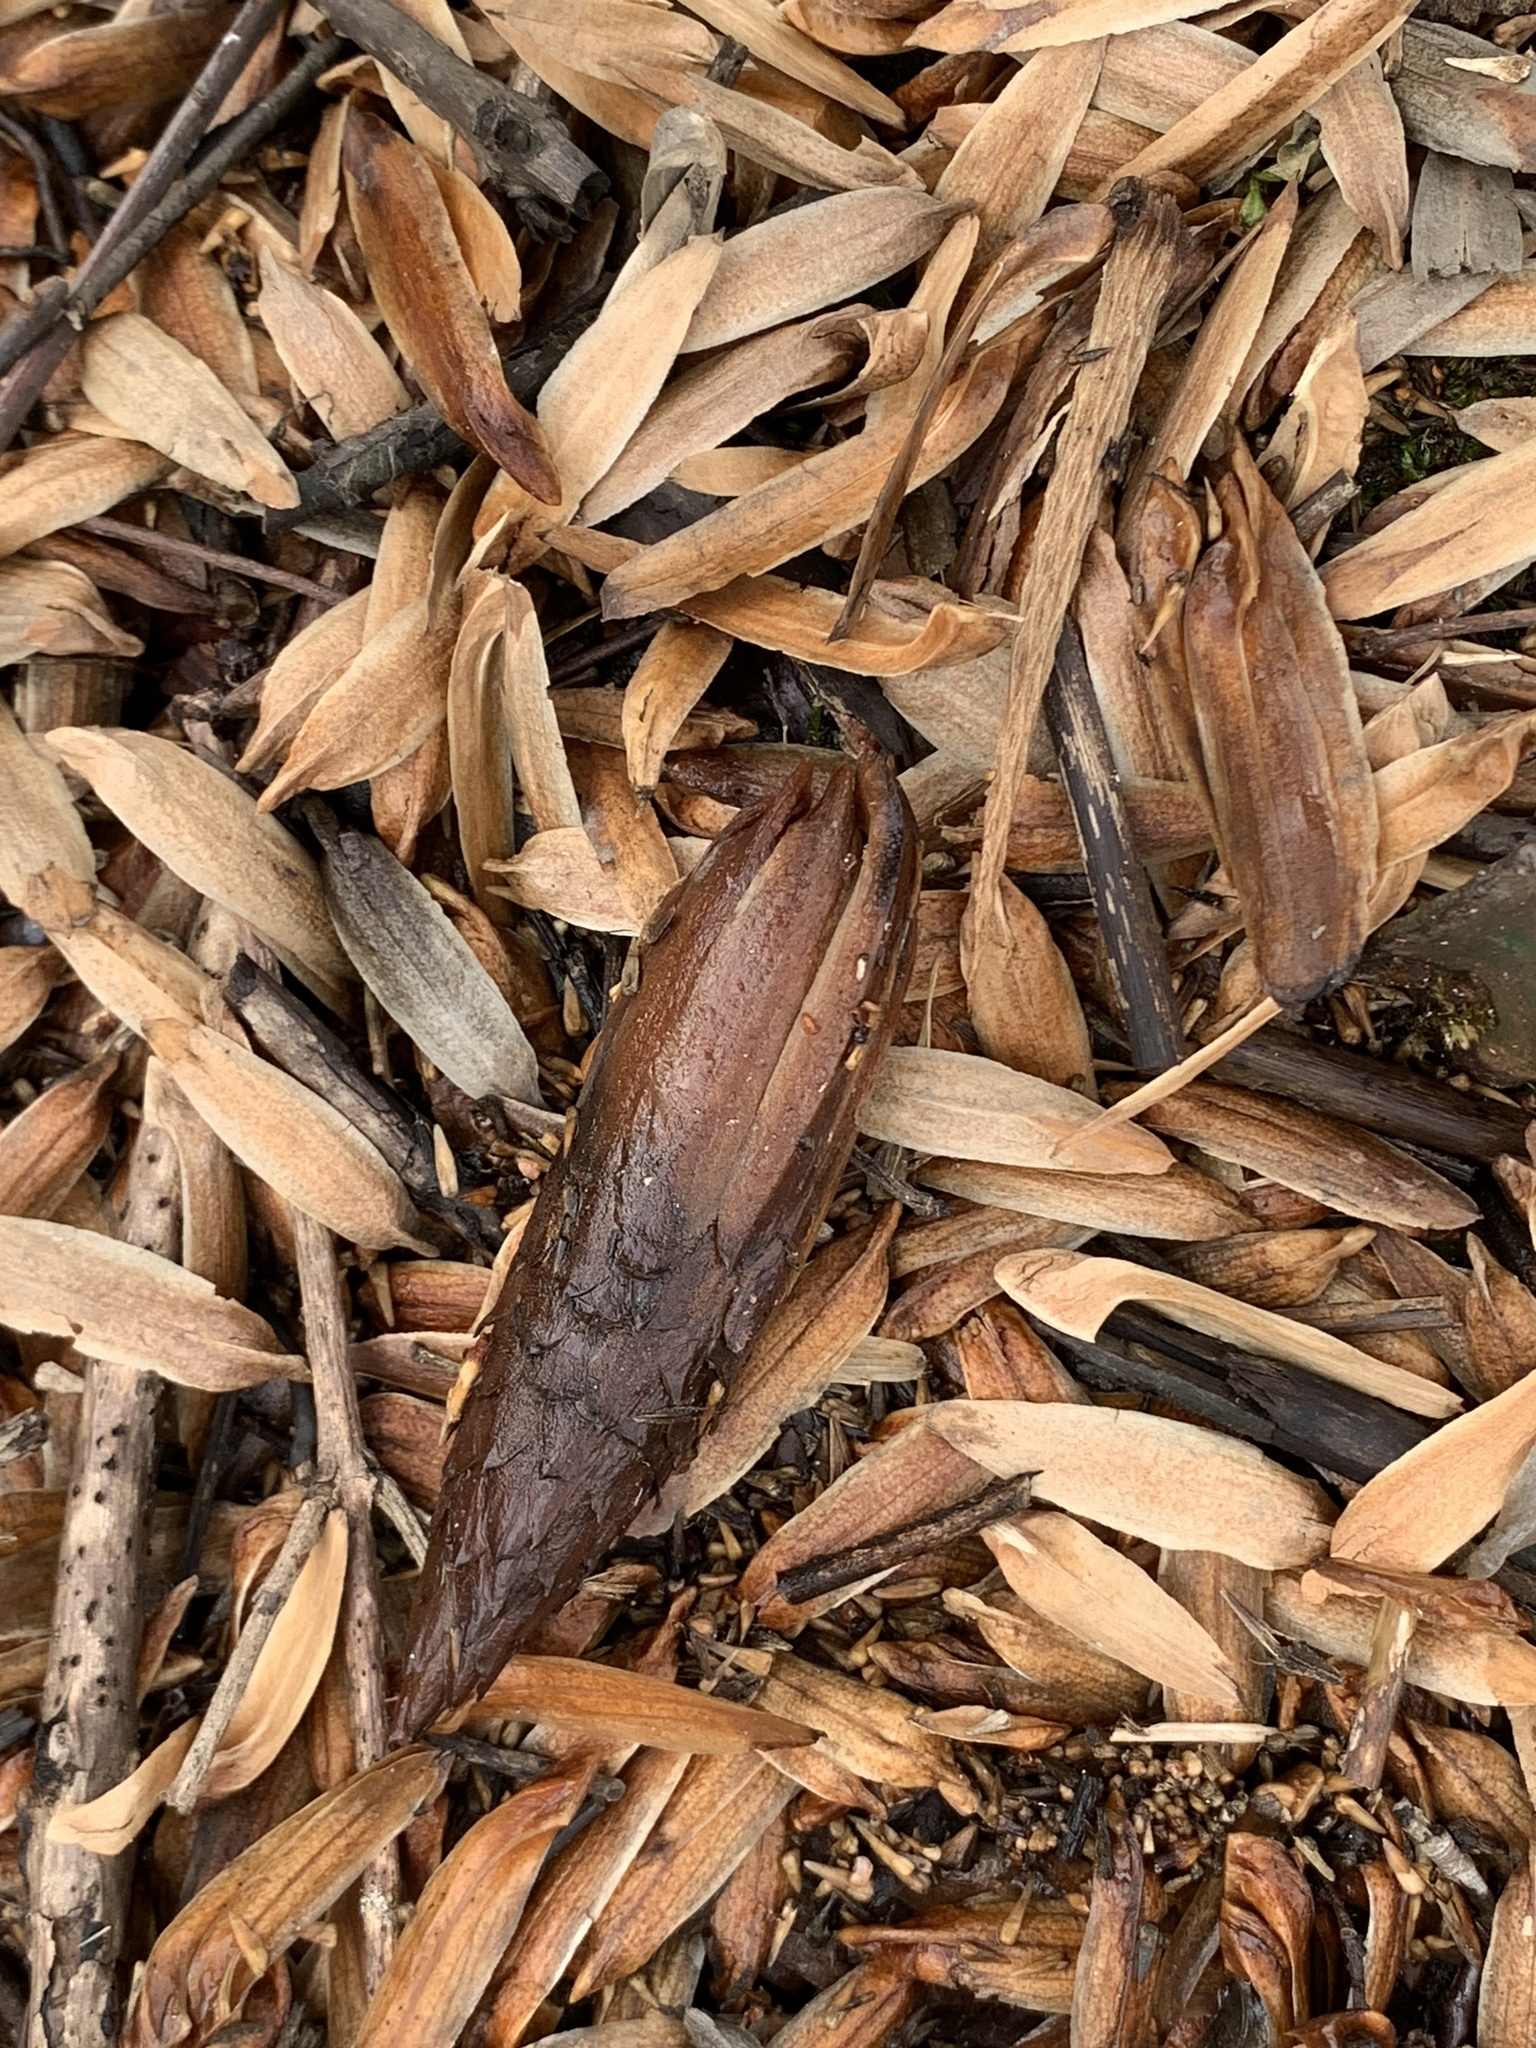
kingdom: Plantae
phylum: Tracheophyta
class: Magnoliopsida
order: Magnoliales
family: Magnoliaceae
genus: Liriodendron
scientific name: Liriodendron tulipifera
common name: Tulip tree
